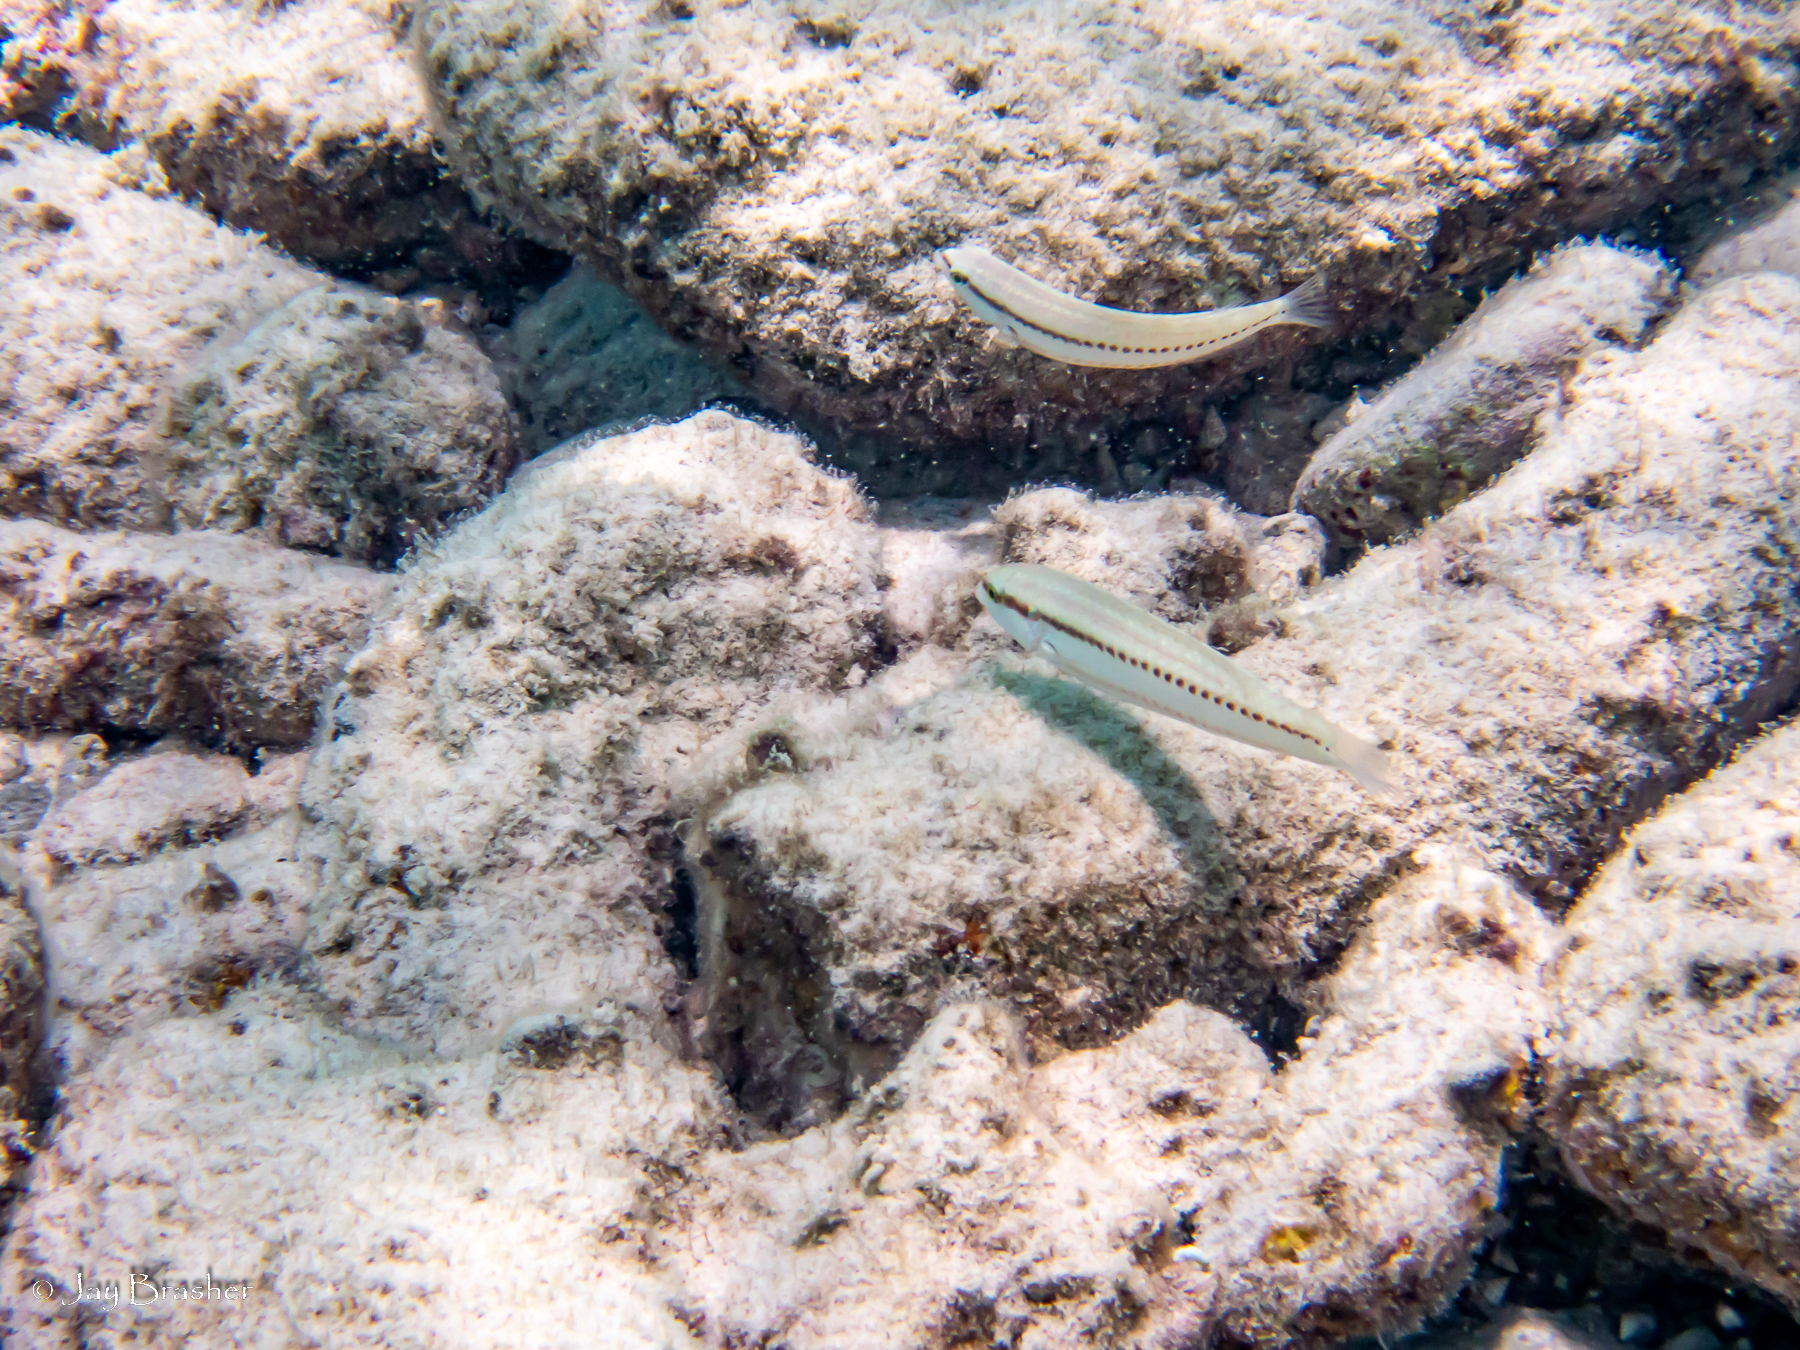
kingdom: Animalia
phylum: Chordata
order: Perciformes
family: Labridae
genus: Halichoeres
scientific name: Halichoeres bivittatus
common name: Slippery dick
